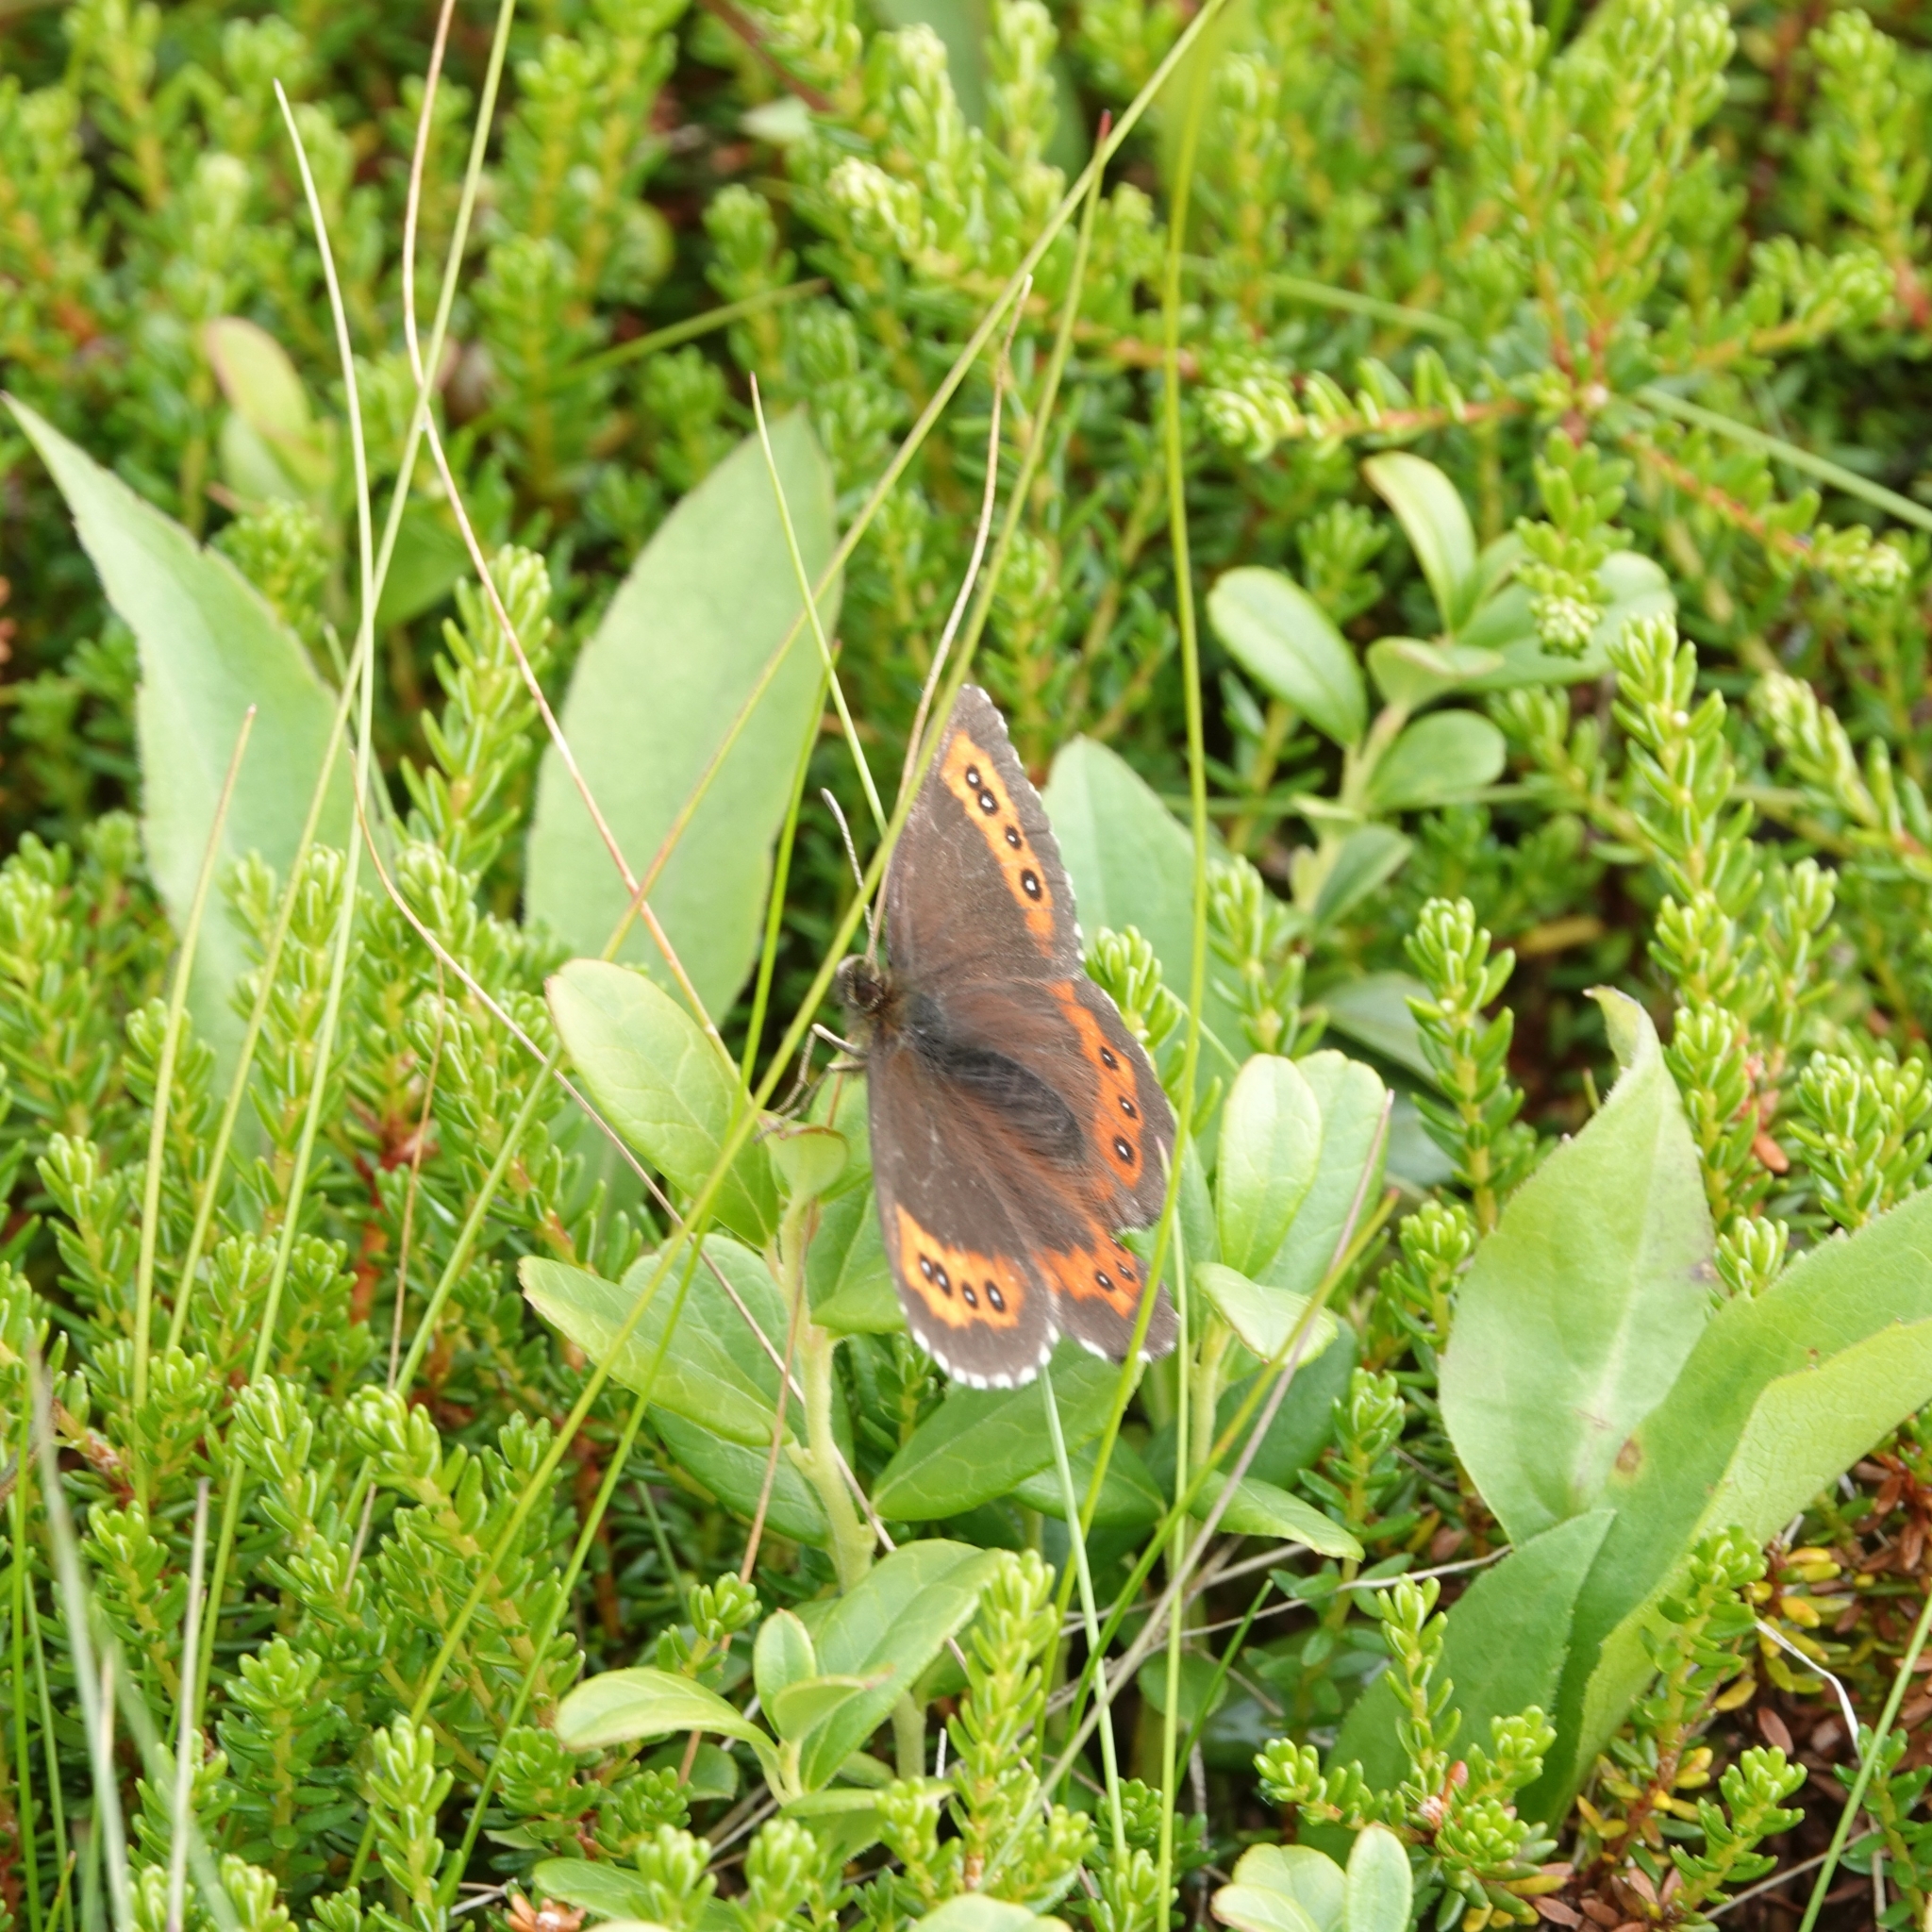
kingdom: Animalia
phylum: Arthropoda
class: Insecta
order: Lepidoptera
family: Nymphalidae
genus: Erebia
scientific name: Erebia ligea
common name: Arran brown
